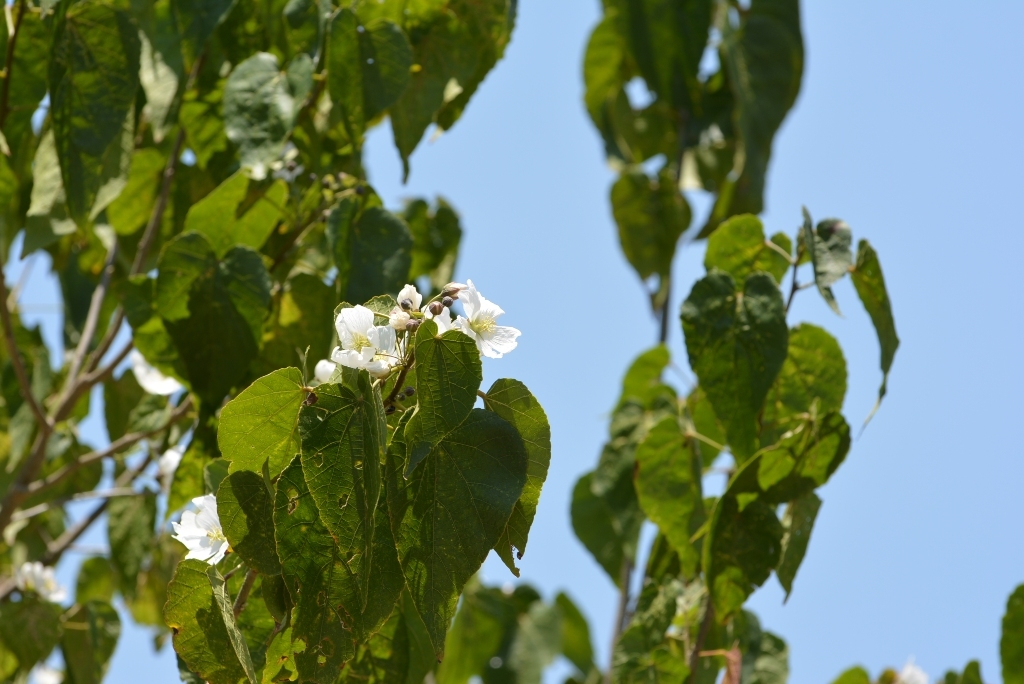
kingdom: Plantae
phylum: Tracheophyta
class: Magnoliopsida
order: Malvales
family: Malvaceae
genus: Robinsonella
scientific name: Robinsonella glabrifolia
